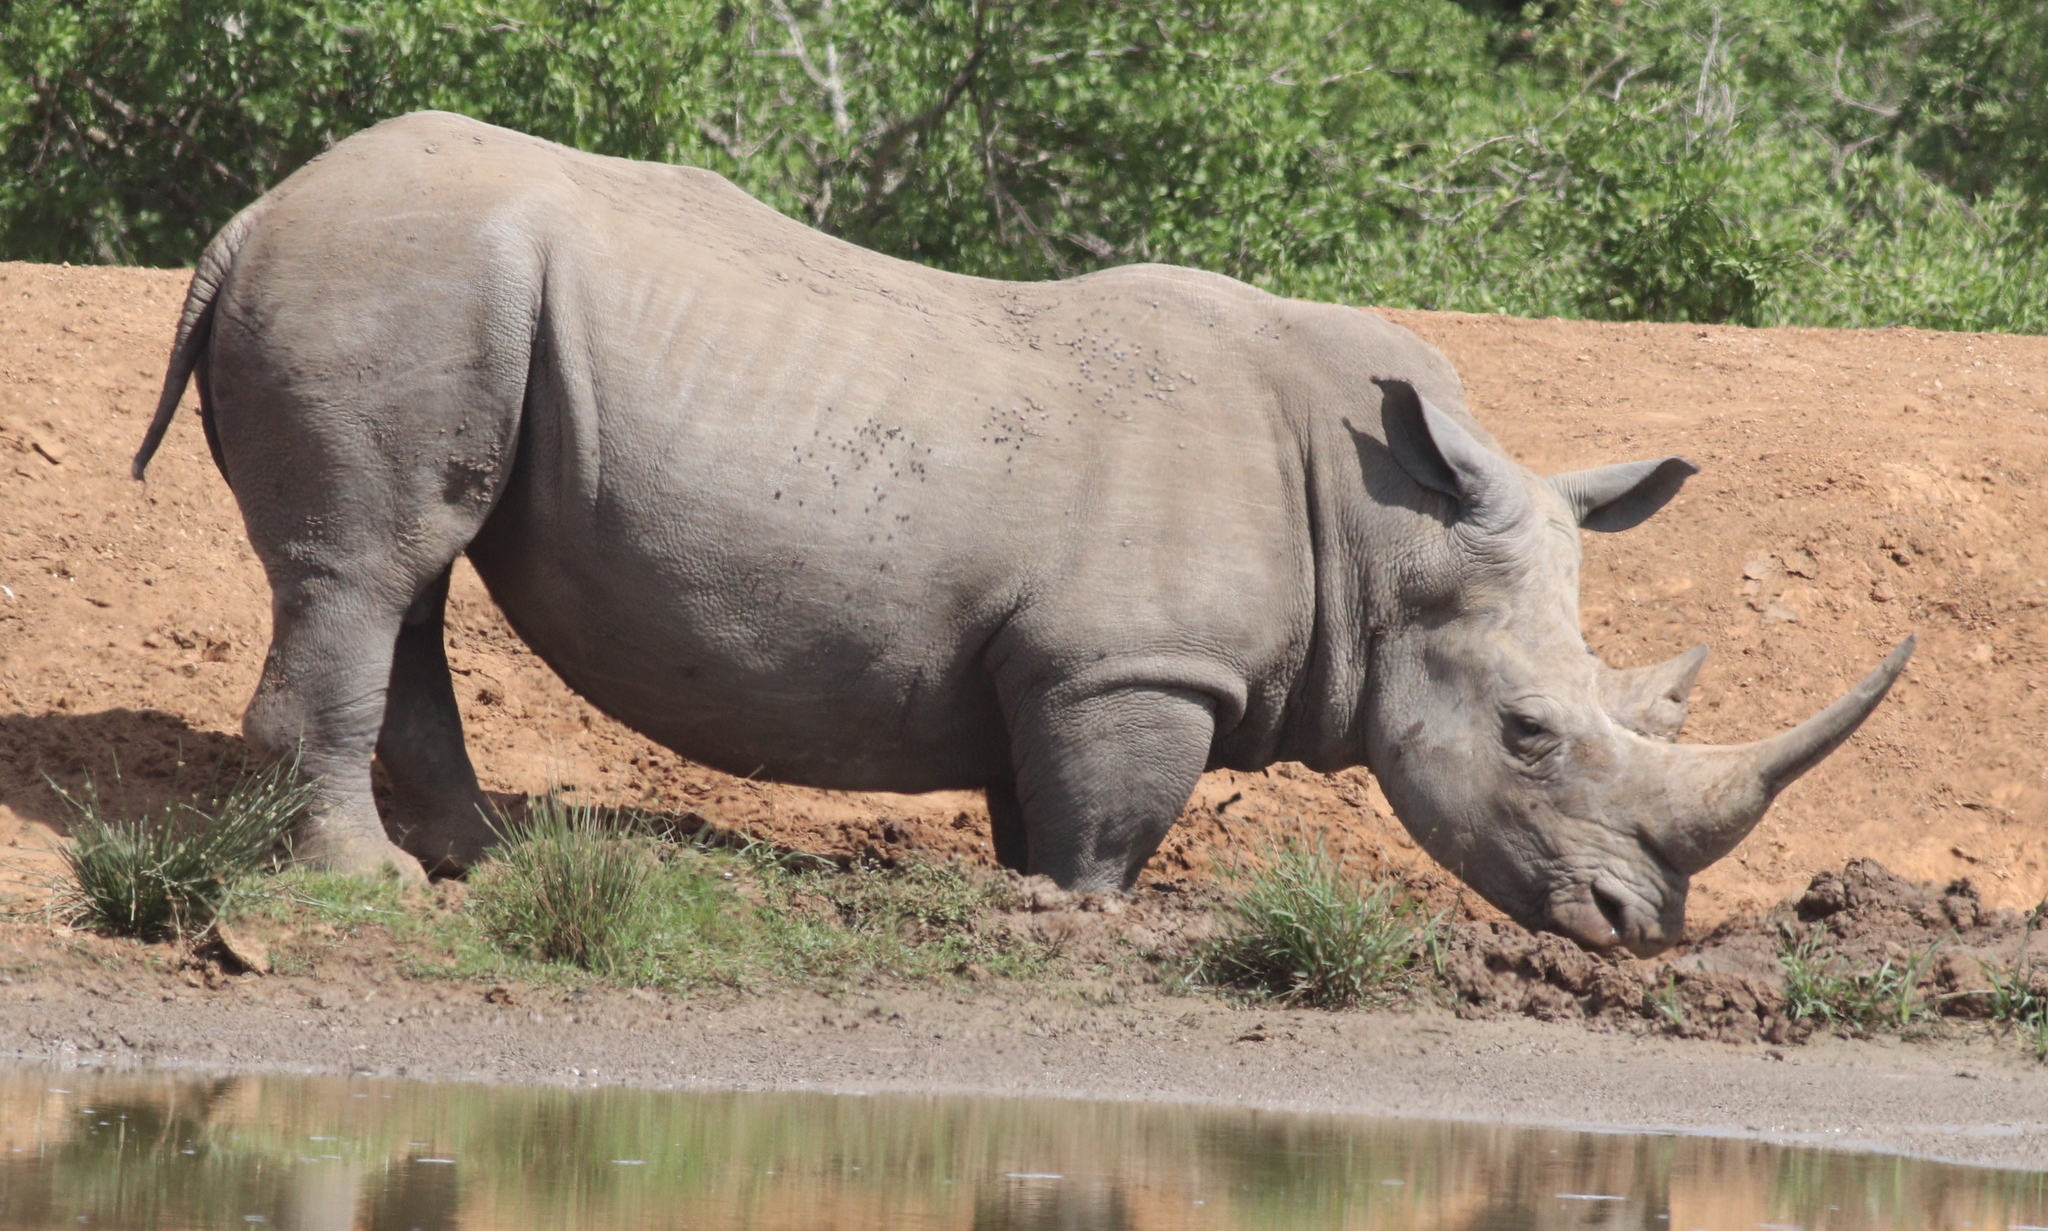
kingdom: Animalia
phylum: Chordata
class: Mammalia
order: Perissodactyla
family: Rhinocerotidae
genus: Ceratotherium
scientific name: Ceratotherium simum
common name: White rhinoceros
